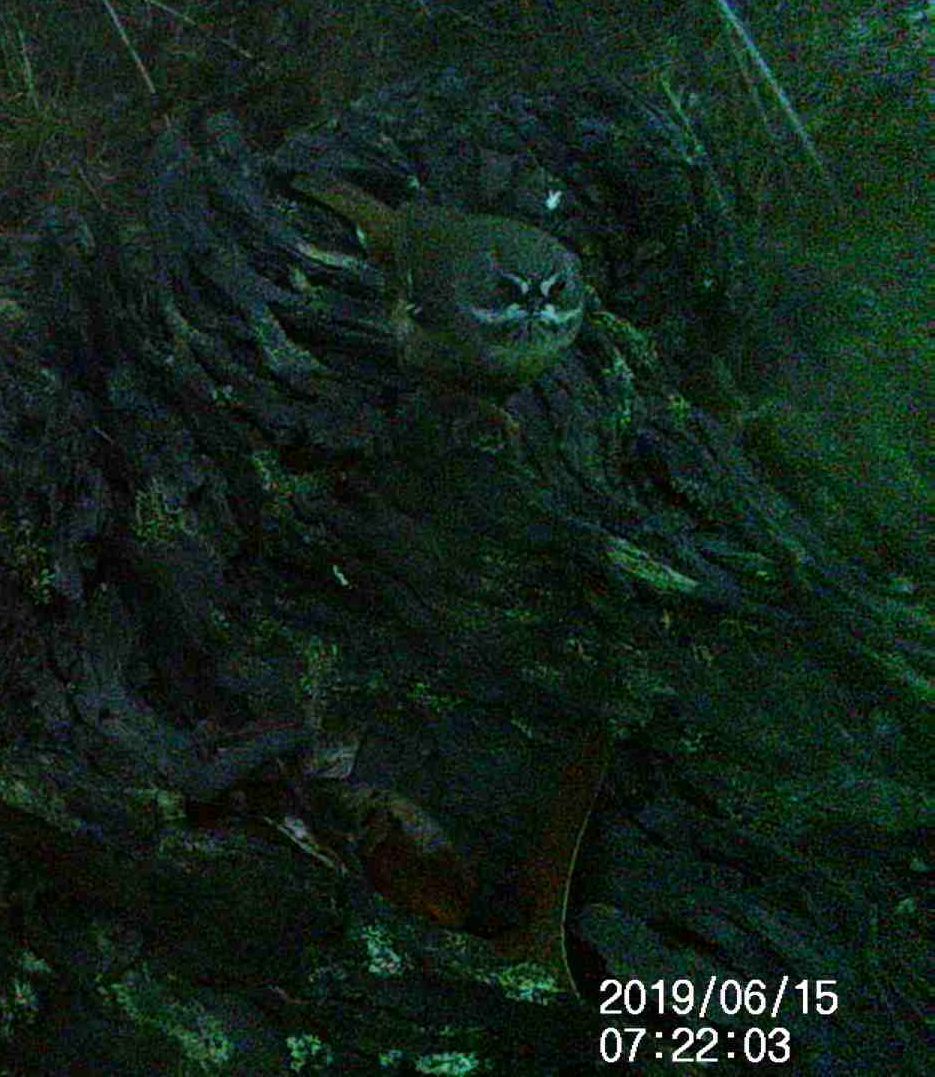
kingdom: Animalia
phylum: Chordata
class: Aves
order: Passeriformes
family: Acanthizidae
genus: Sericornis
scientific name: Sericornis frontalis
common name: White-browed scrubwren
